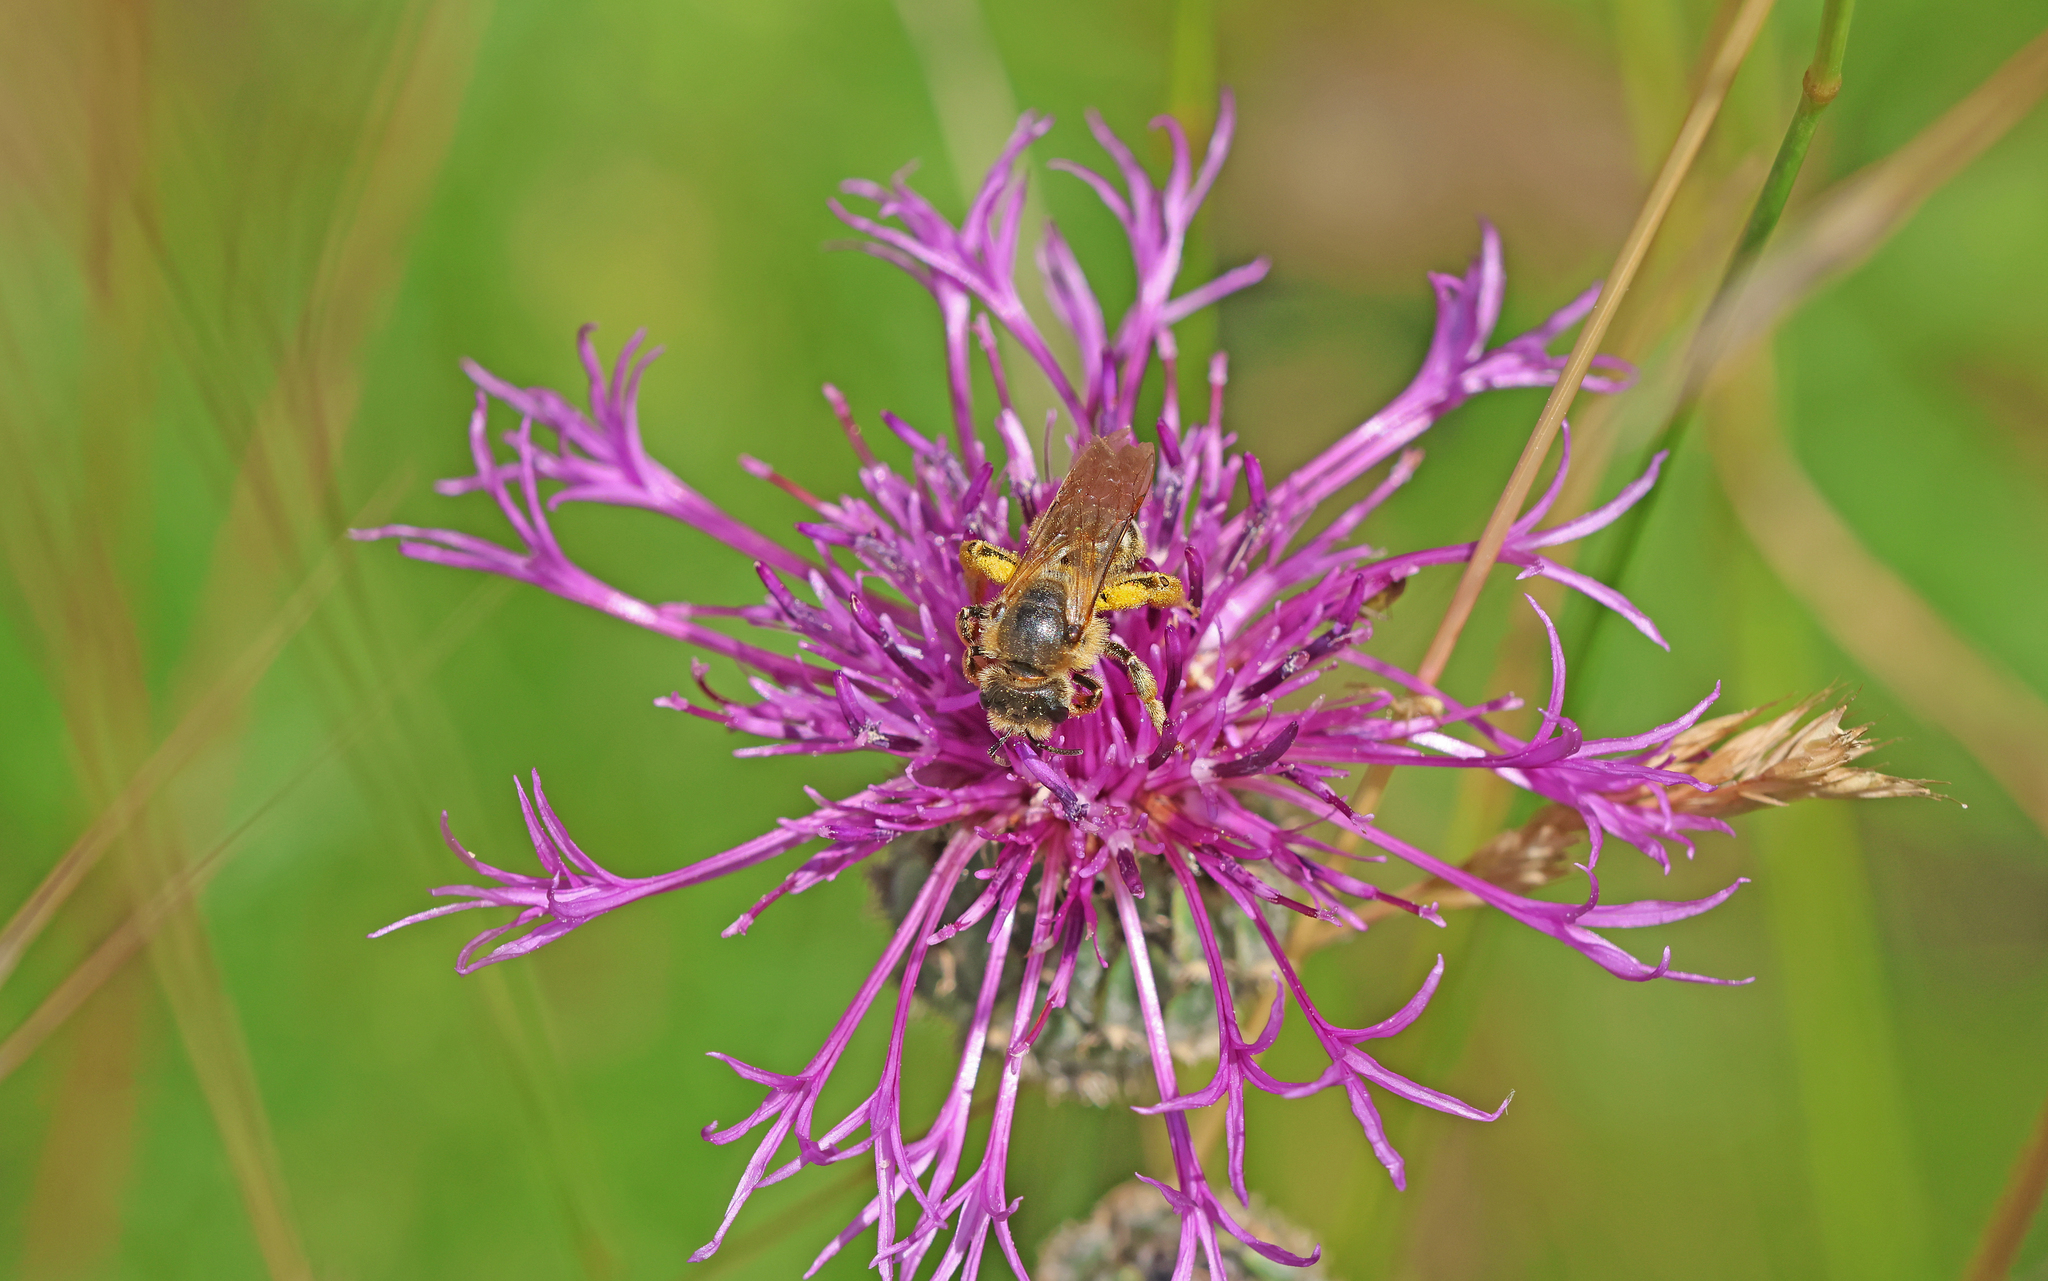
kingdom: Animalia
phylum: Arthropoda
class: Insecta
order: Hymenoptera
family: Halictidae
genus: Halictus
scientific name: Halictus sexcinctus
